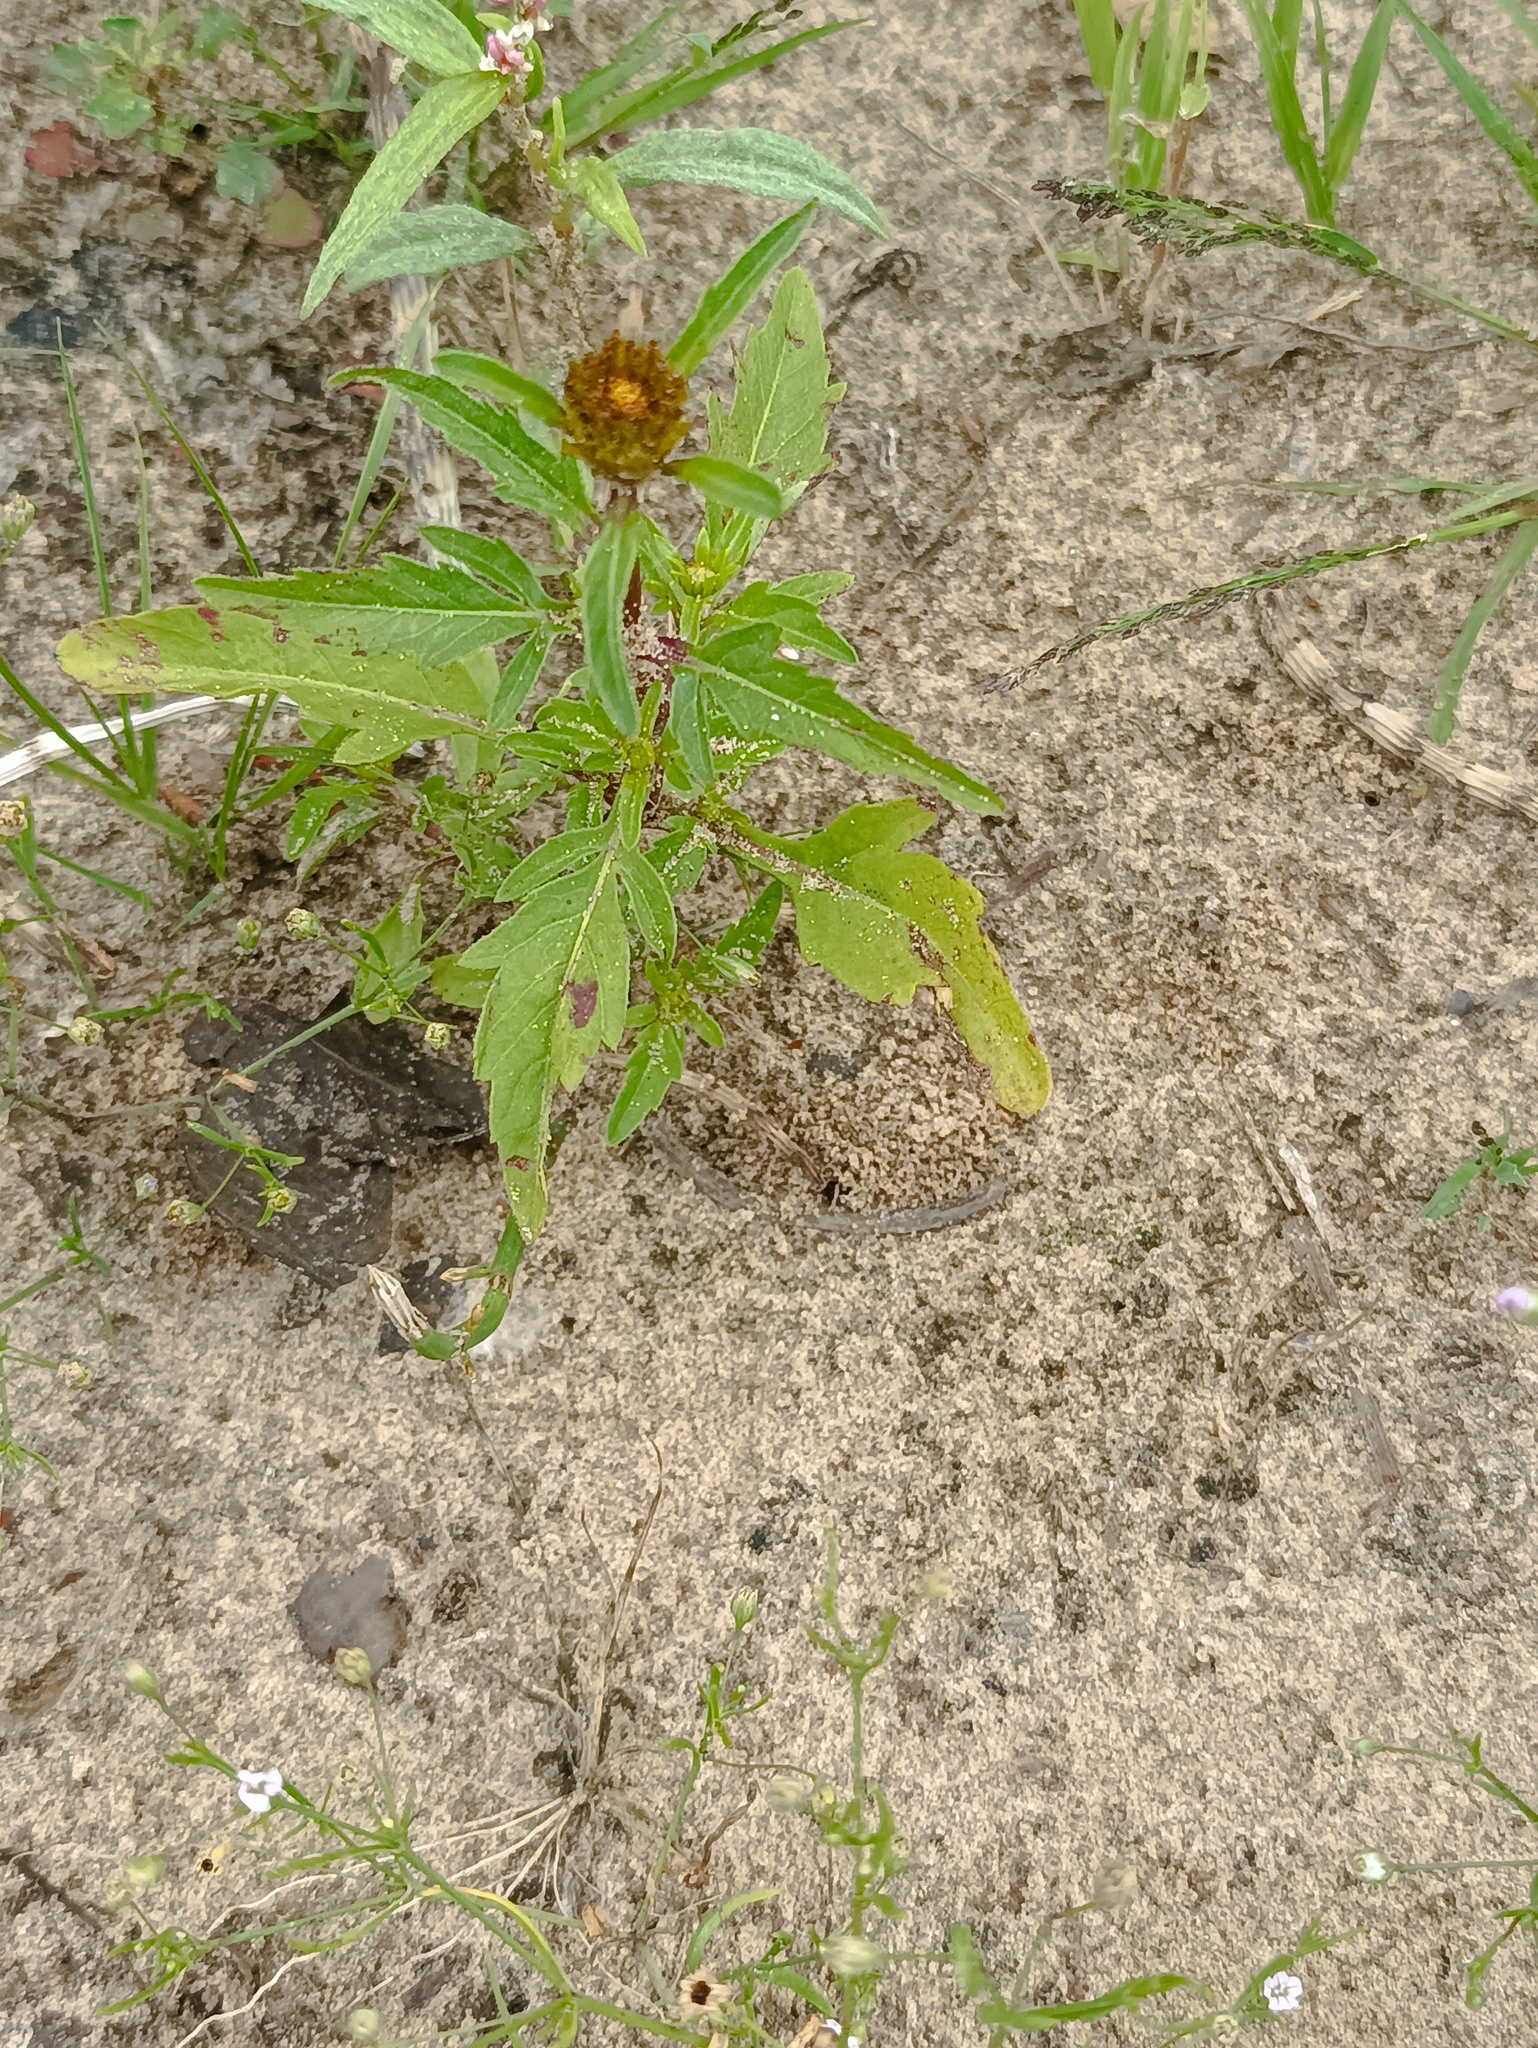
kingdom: Plantae
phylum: Tracheophyta
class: Magnoliopsida
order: Asterales
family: Asteraceae
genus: Bidens
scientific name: Bidens tripartita
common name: Trifid bur-marigold
